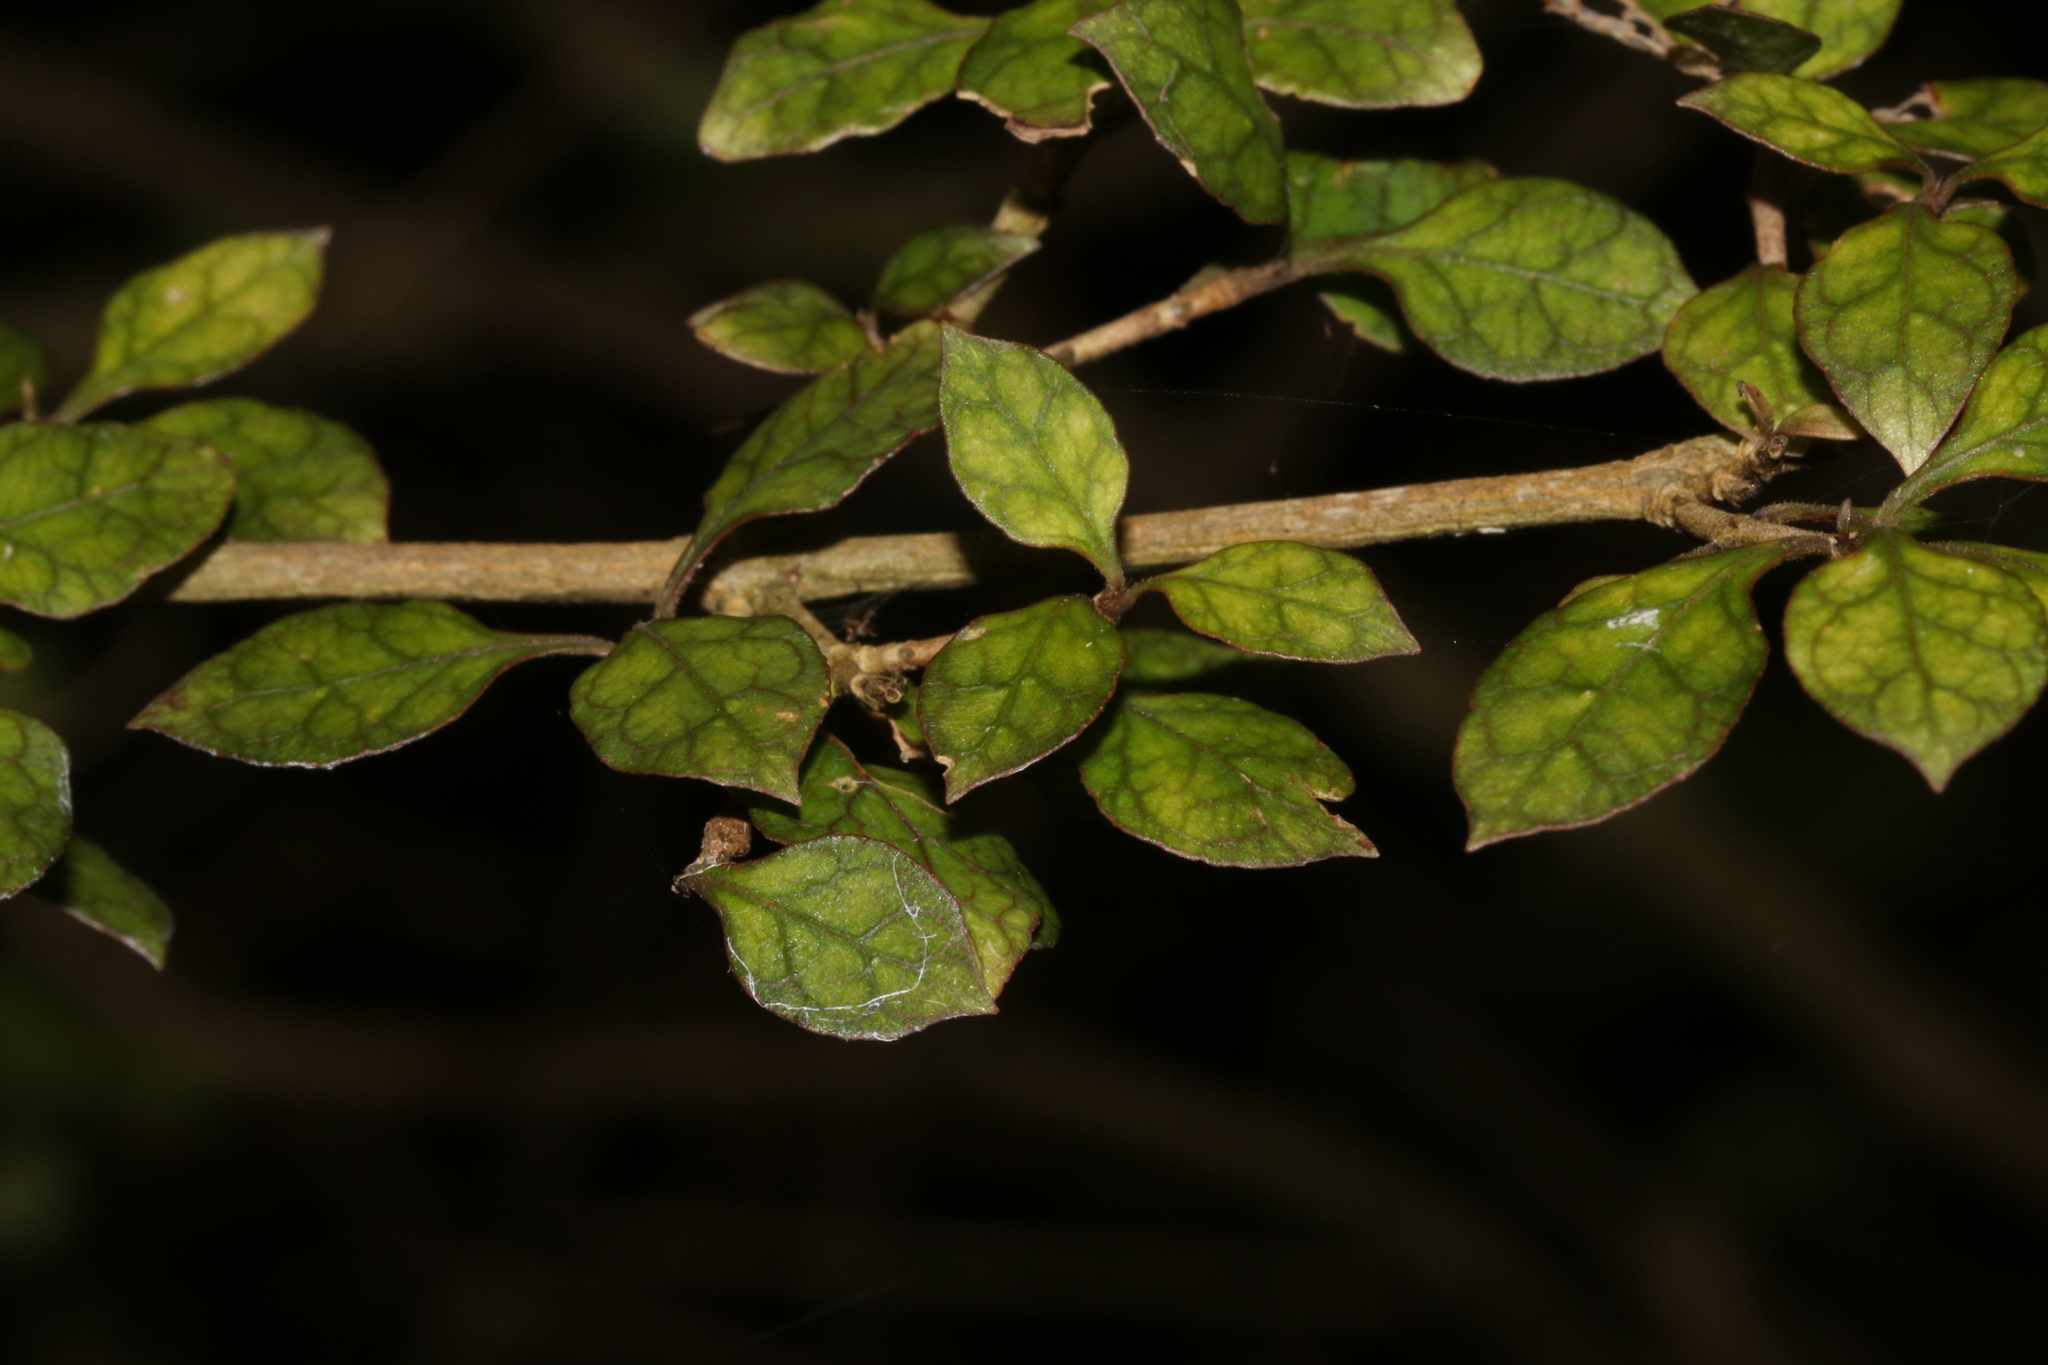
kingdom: Plantae
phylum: Tracheophyta
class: Magnoliopsida
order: Gentianales
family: Rubiaceae
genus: Coprosma
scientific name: Coprosma areolata
